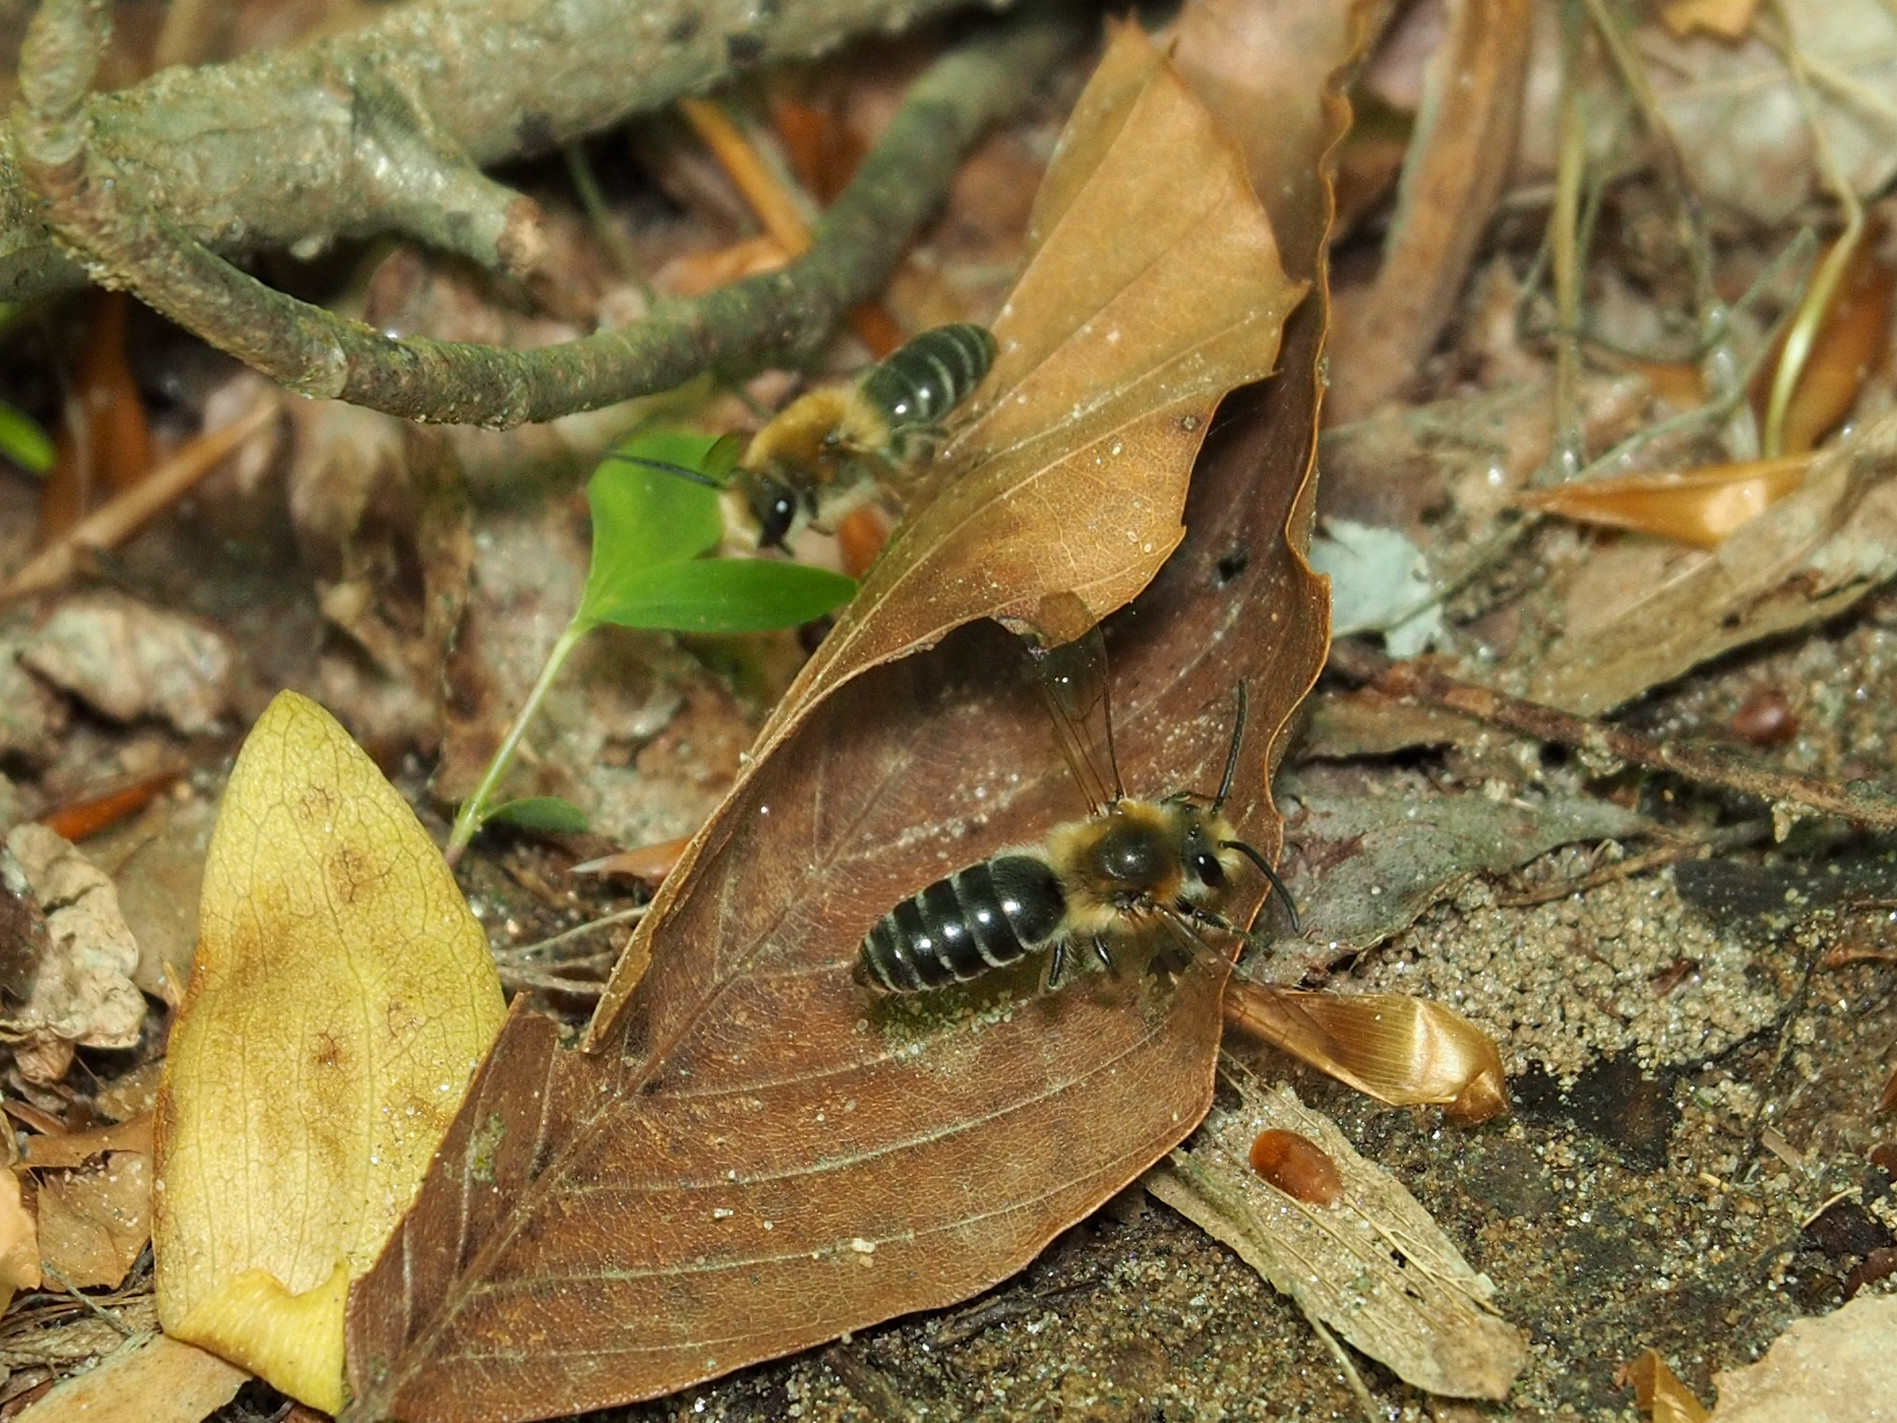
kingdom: Animalia
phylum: Arthropoda
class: Insecta
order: Hymenoptera
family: Colletidae
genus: Colletes
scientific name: Colletes thoracicus
